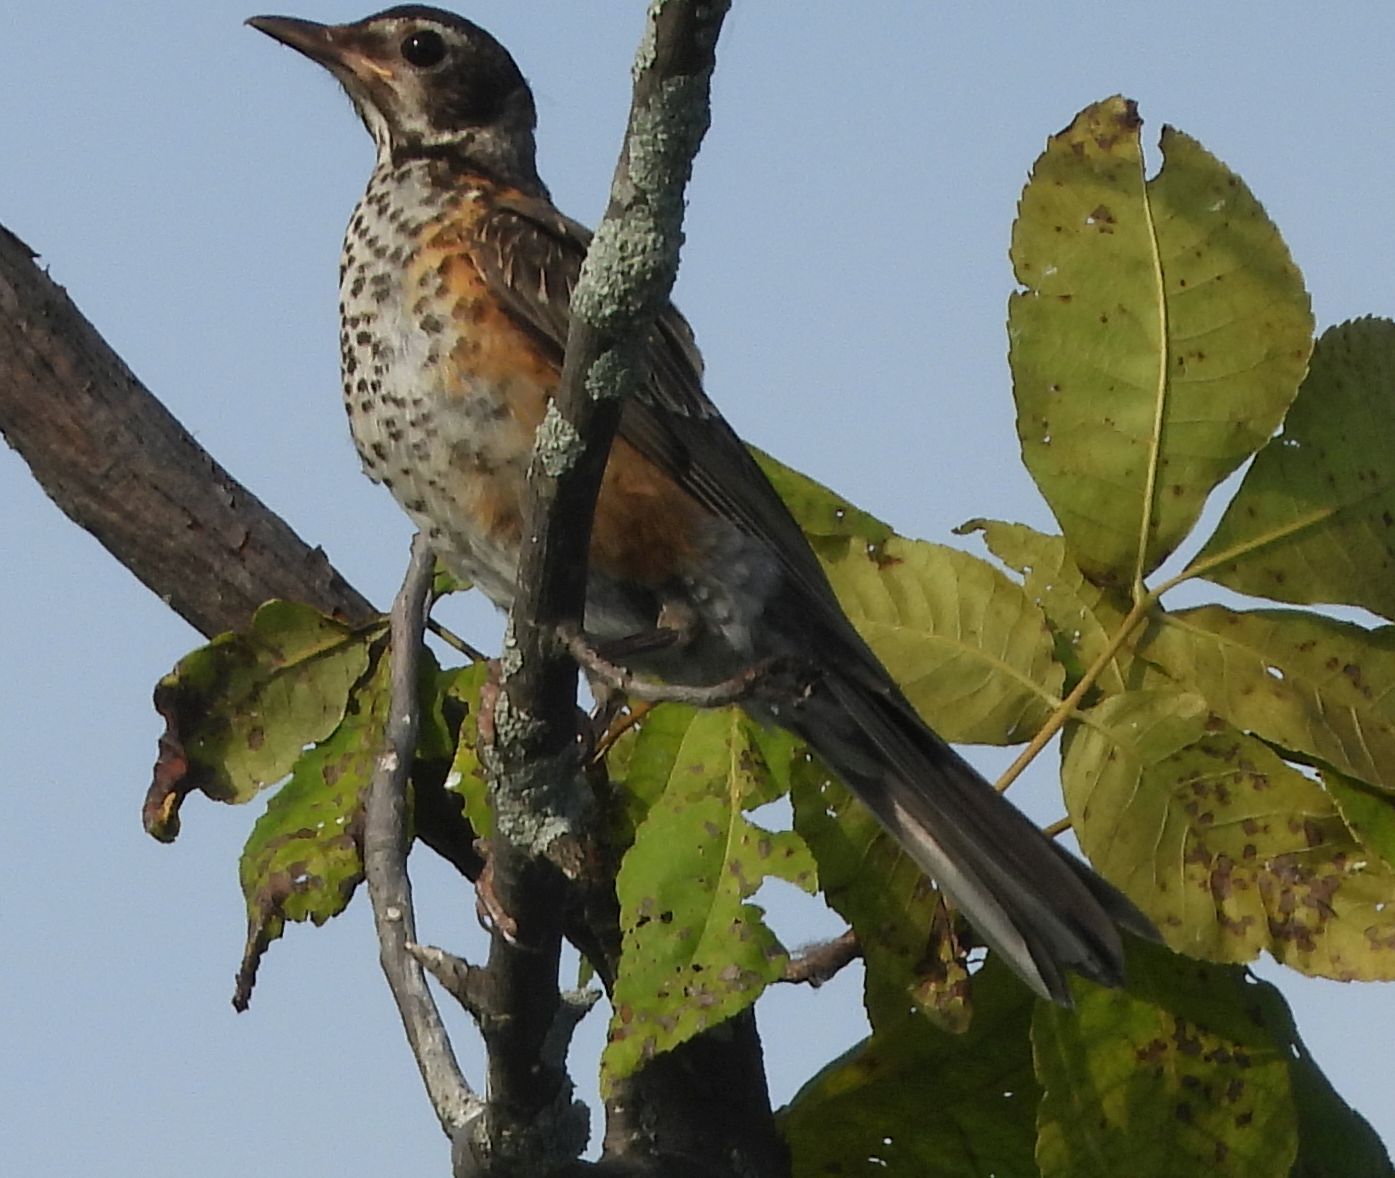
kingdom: Animalia
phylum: Chordata
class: Aves
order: Passeriformes
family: Turdidae
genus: Turdus
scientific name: Turdus migratorius
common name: American robin
